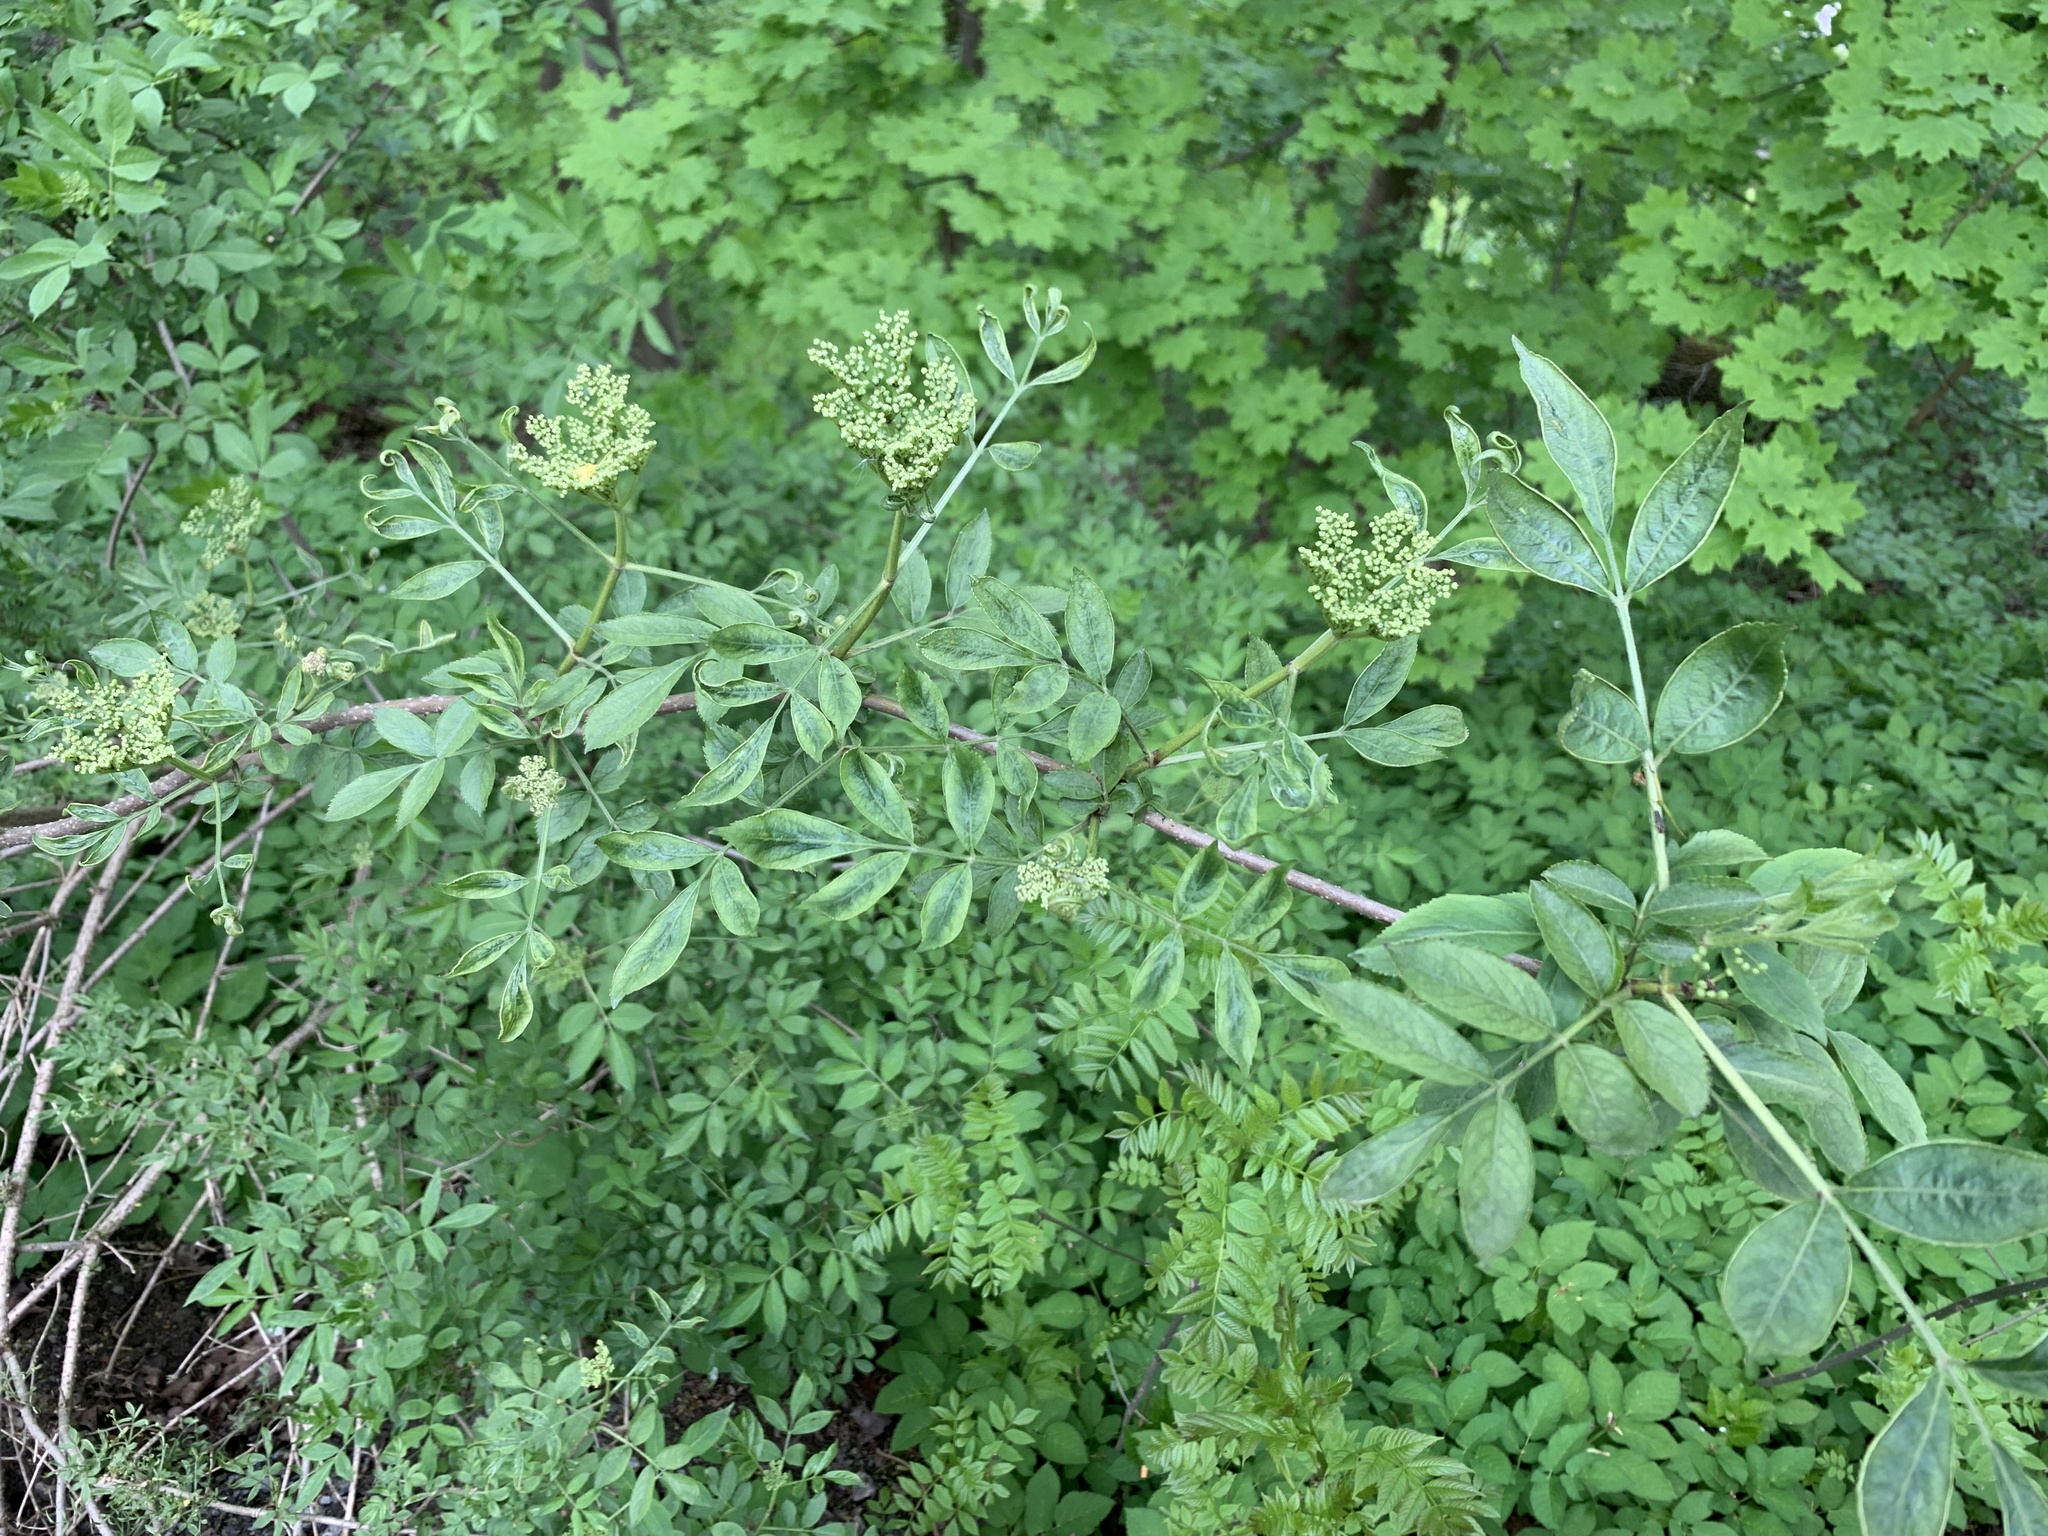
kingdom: Plantae
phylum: Tracheophyta
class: Magnoliopsida
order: Dipsacales
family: Viburnaceae
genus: Sambucus
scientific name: Sambucus nigra
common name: Elder
